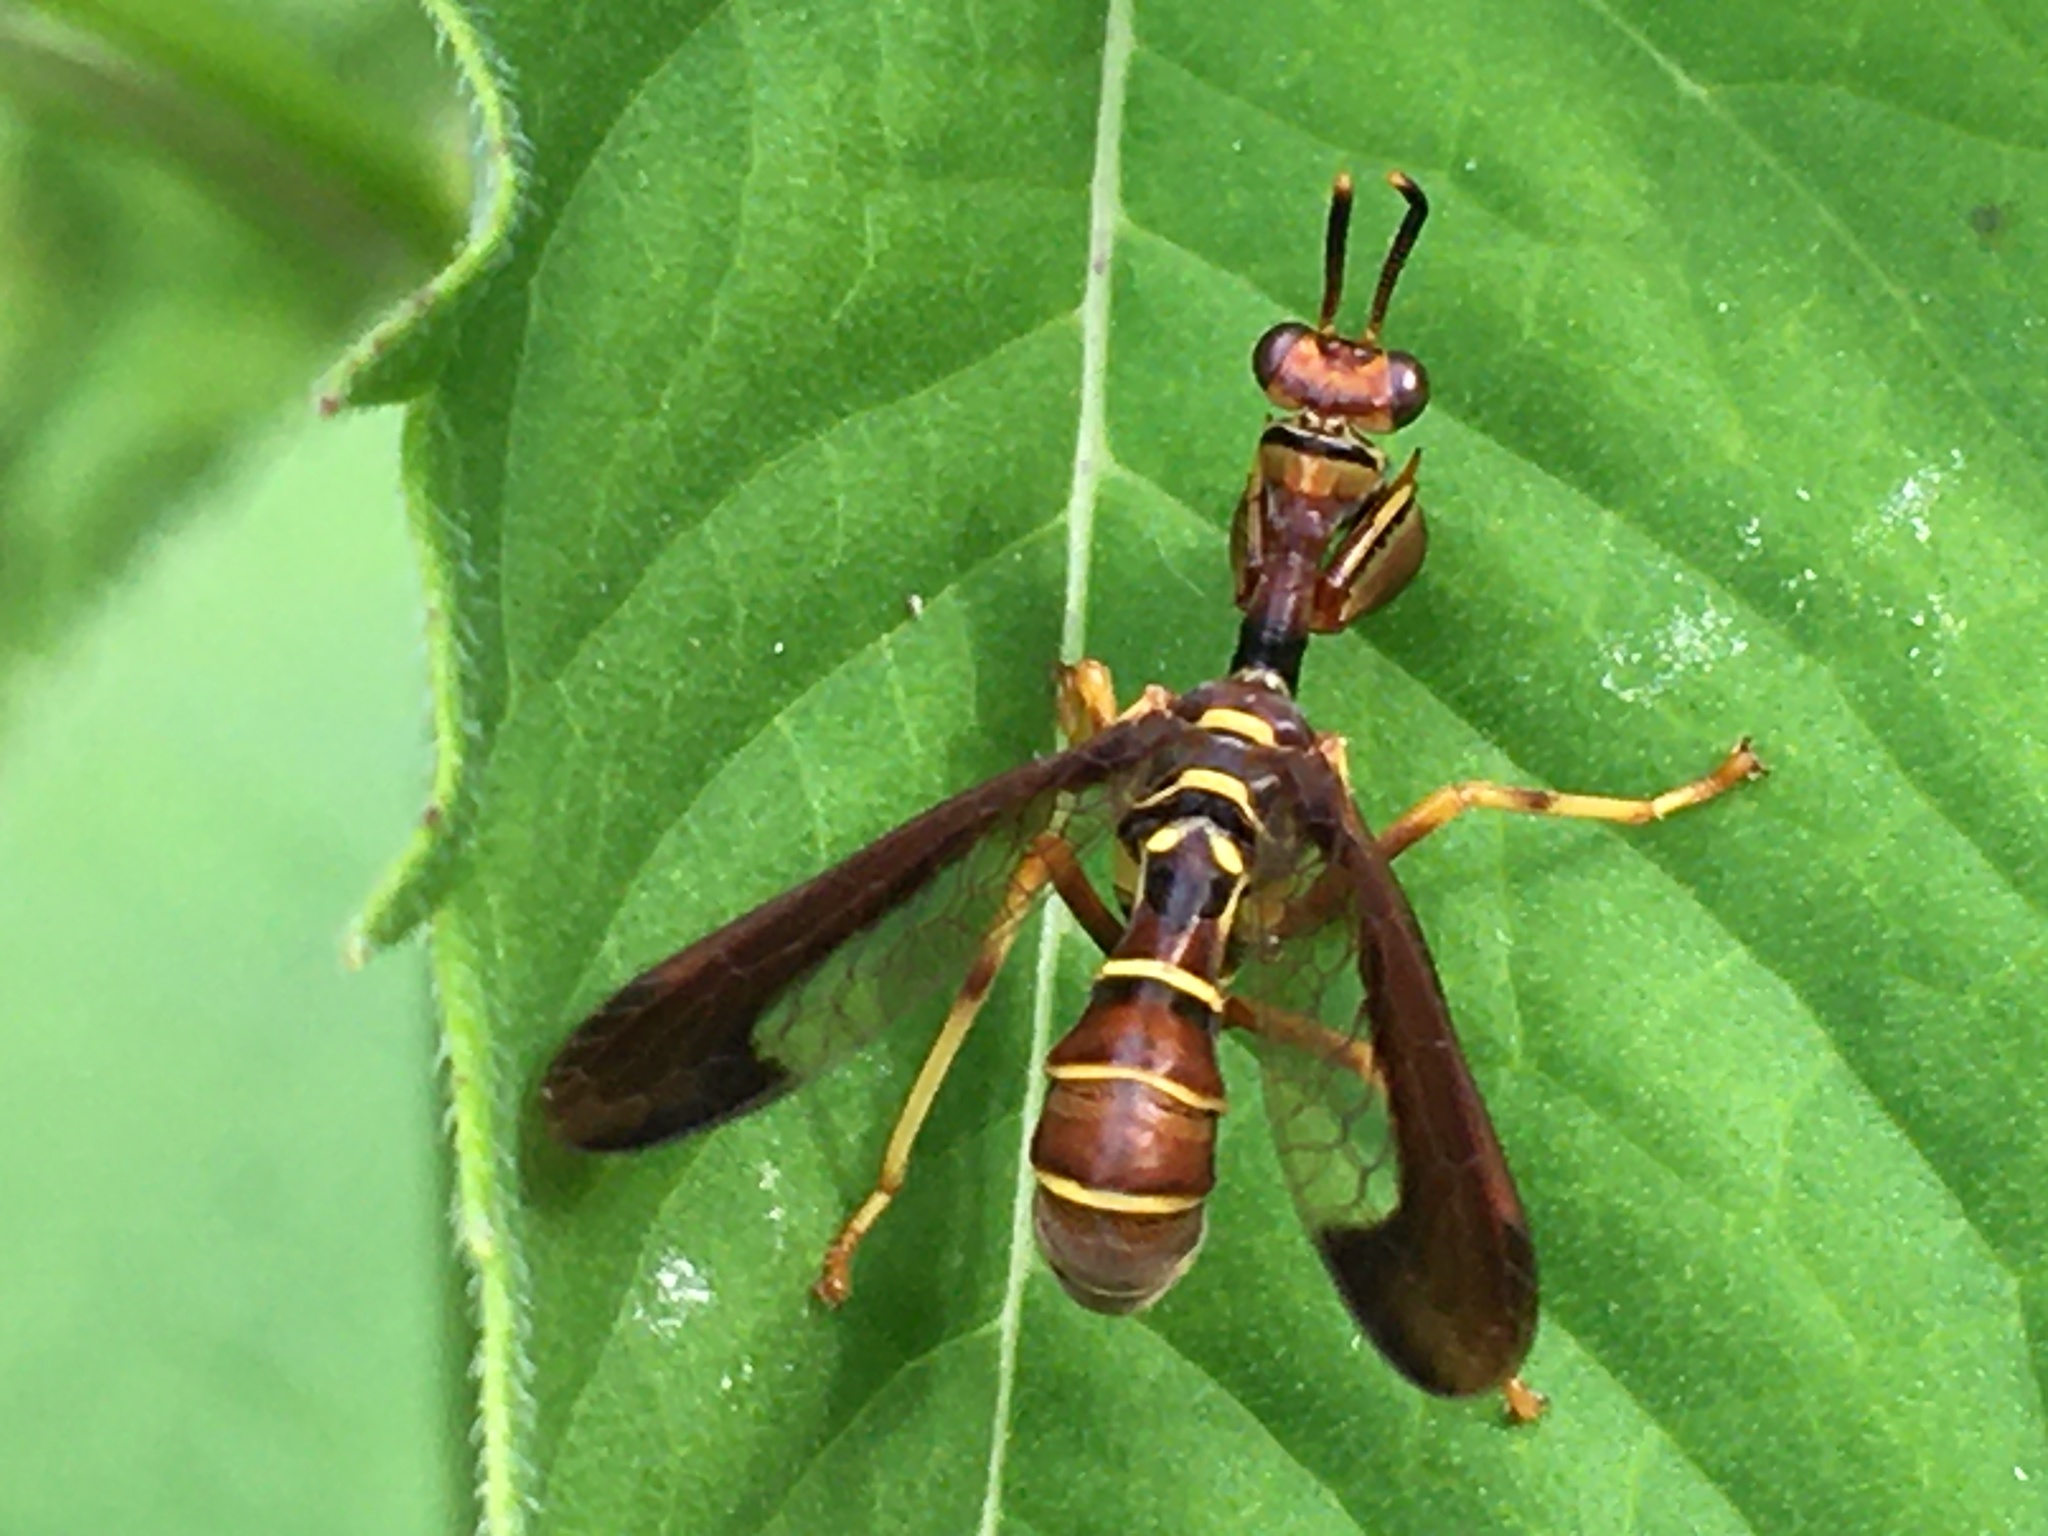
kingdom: Animalia
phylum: Arthropoda
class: Insecta
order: Neuroptera
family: Mantispidae
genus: Climaciella
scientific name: Climaciella brunnea
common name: Brown wasp mantidfly
